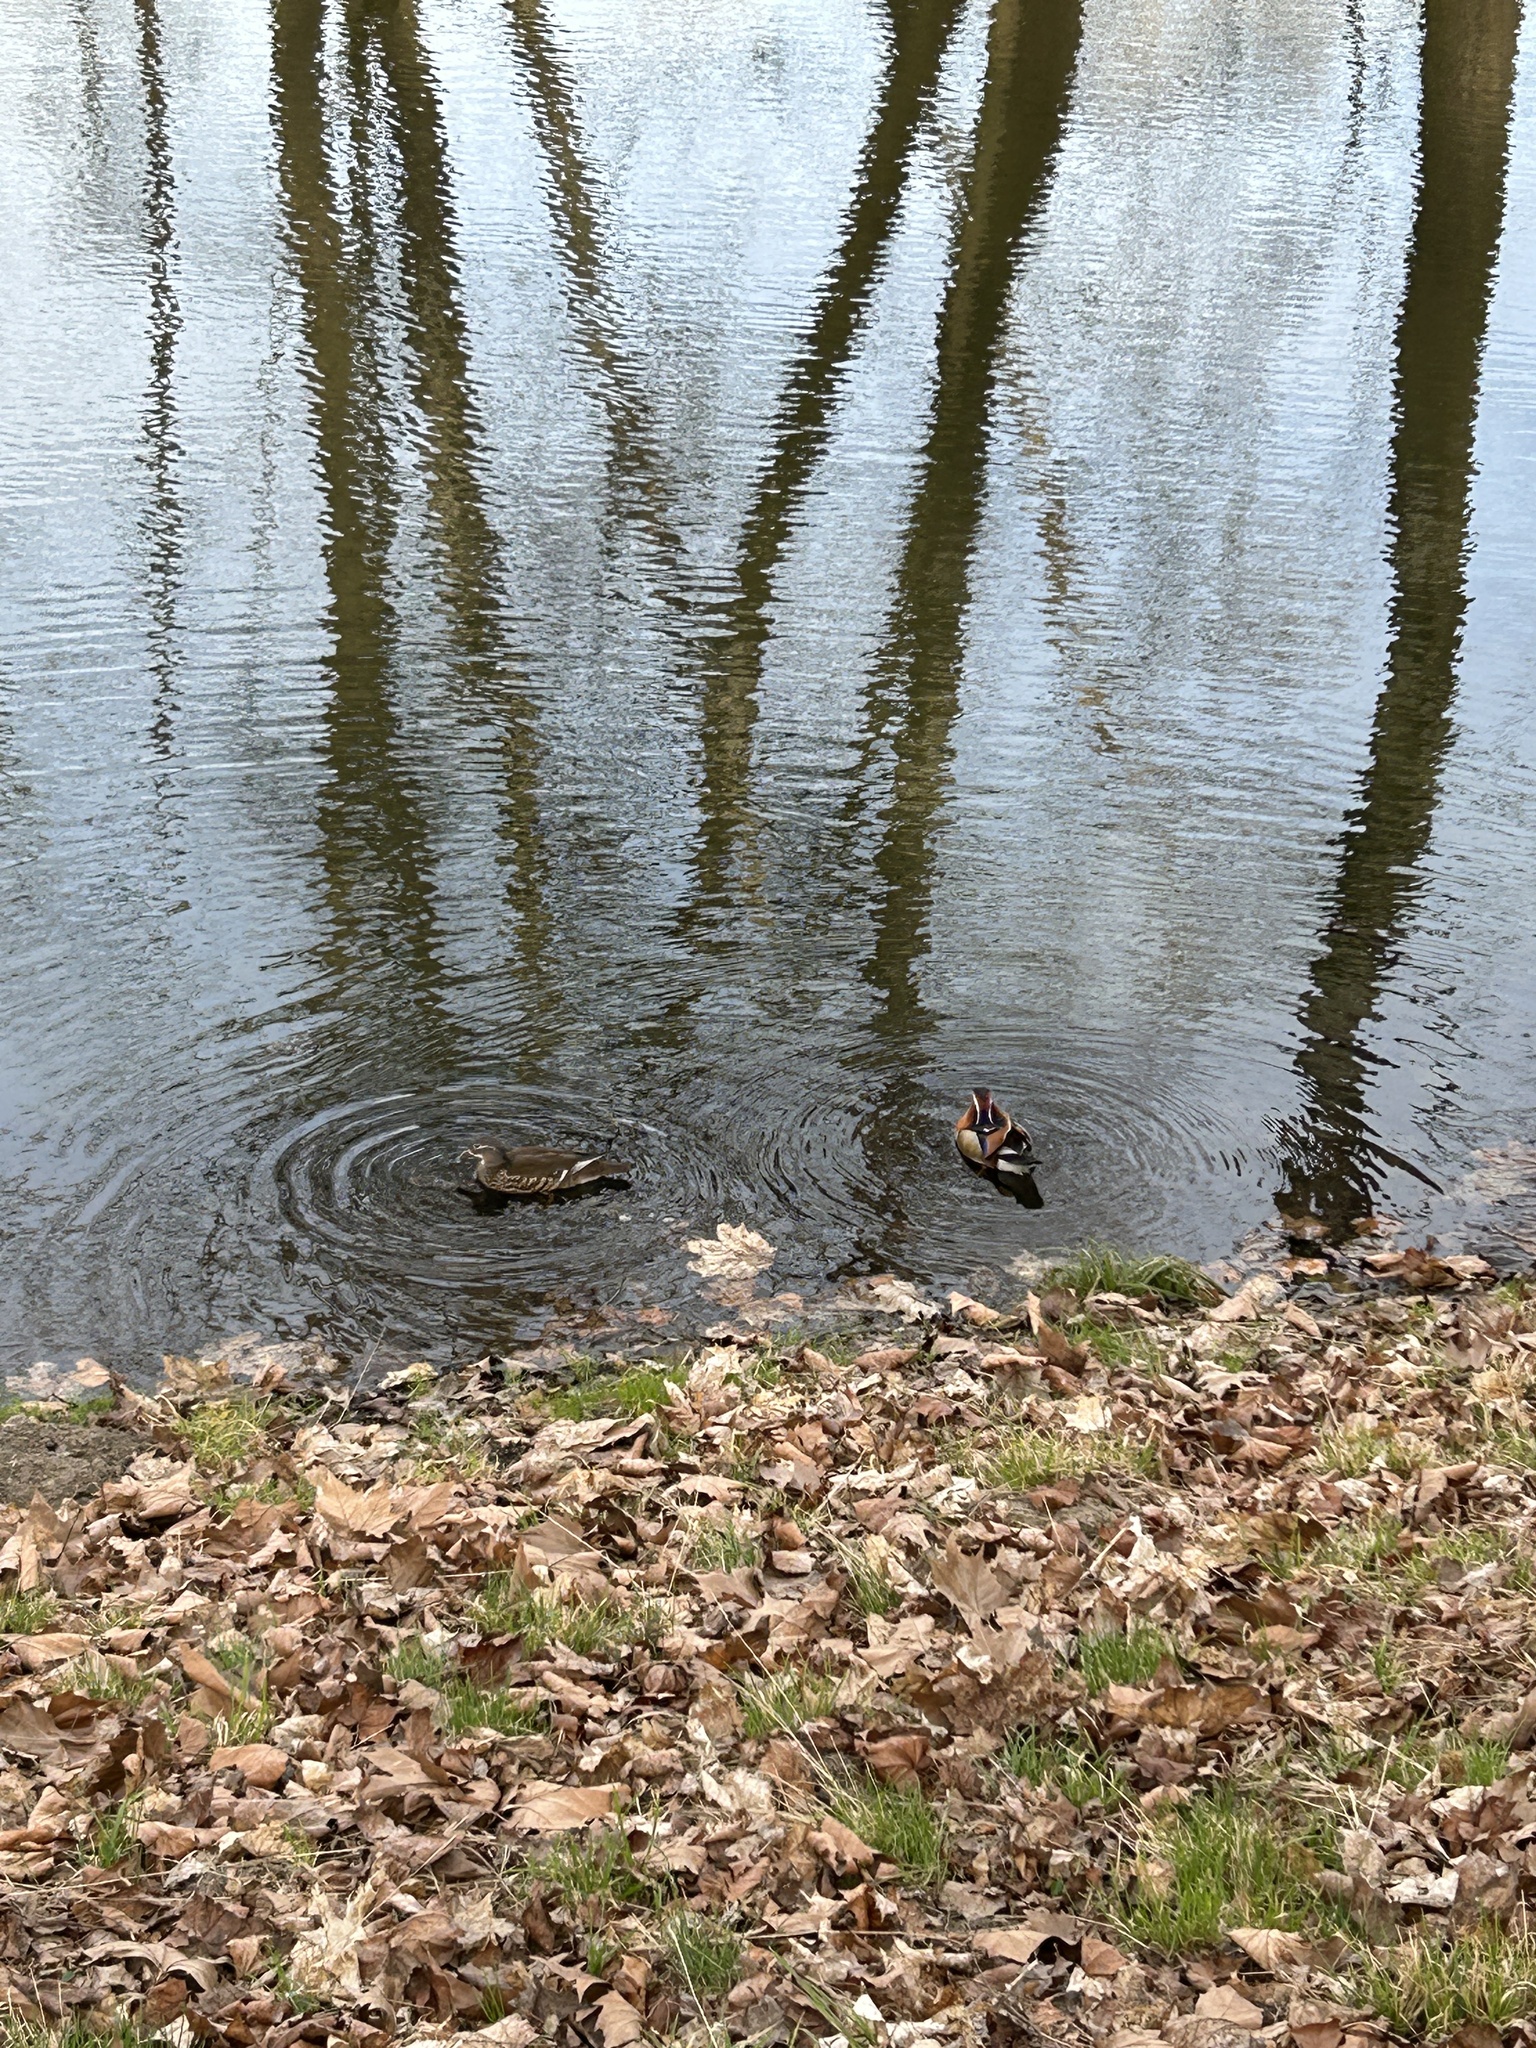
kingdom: Animalia
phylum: Chordata
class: Aves
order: Anseriformes
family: Anatidae
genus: Aix
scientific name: Aix galericulata
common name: Mandarin duck
